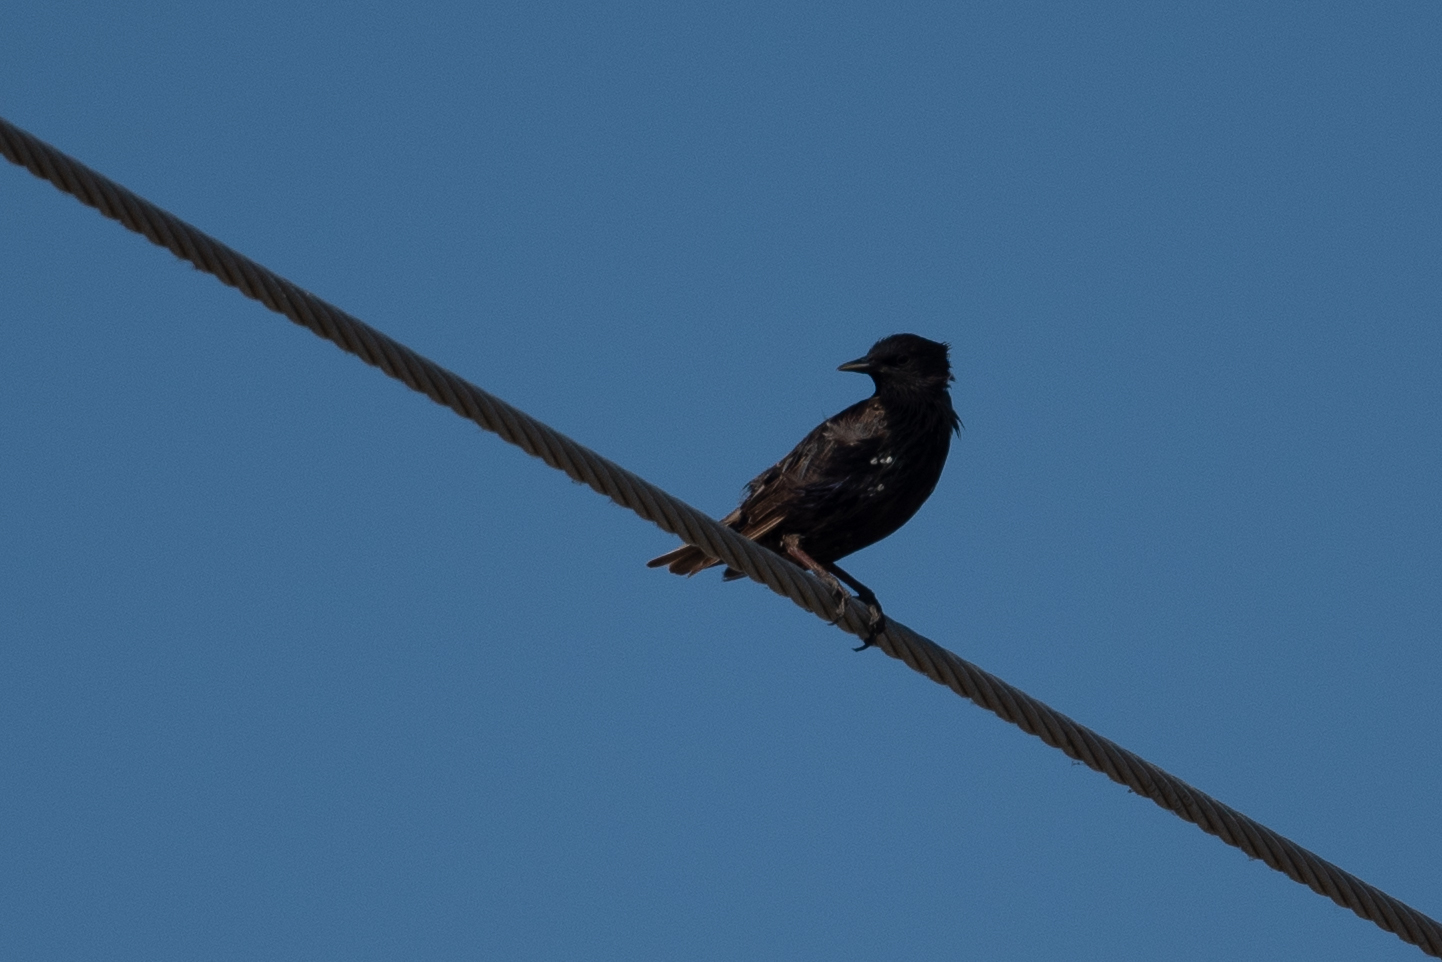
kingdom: Animalia
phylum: Chordata
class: Aves
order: Passeriformes
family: Sturnidae
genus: Sturnus
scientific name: Sturnus vulgaris
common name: Common starling
